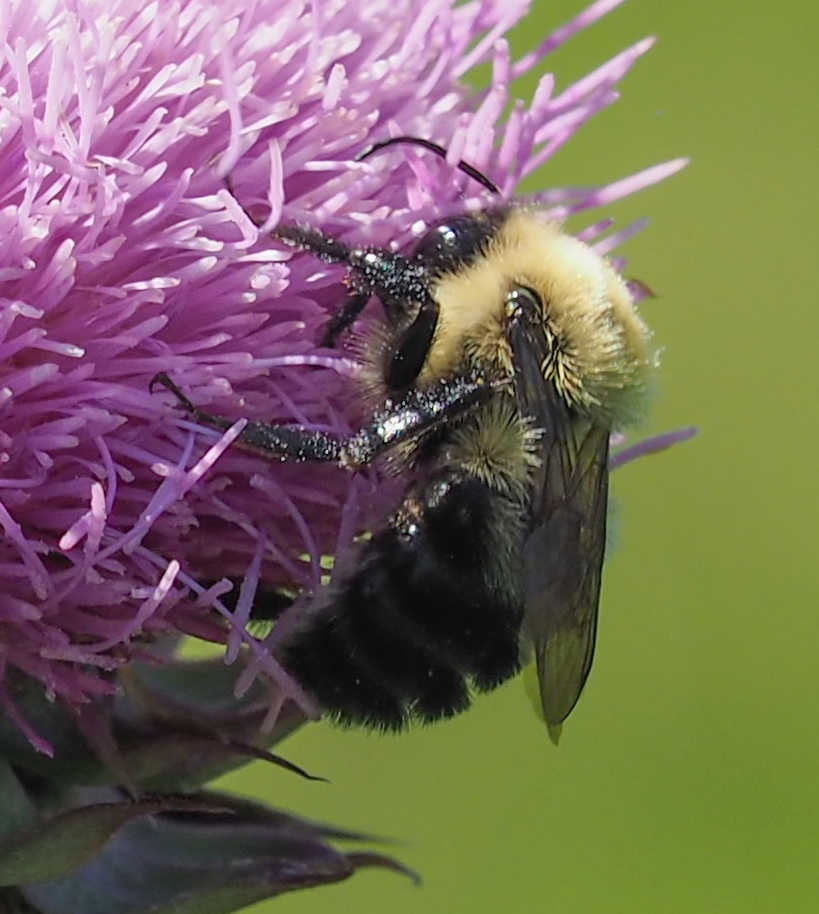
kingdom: Animalia
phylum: Arthropoda
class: Insecta
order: Hymenoptera
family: Apidae
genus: Bombus
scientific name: Bombus bimaculatus
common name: Two-spotted bumble bee
